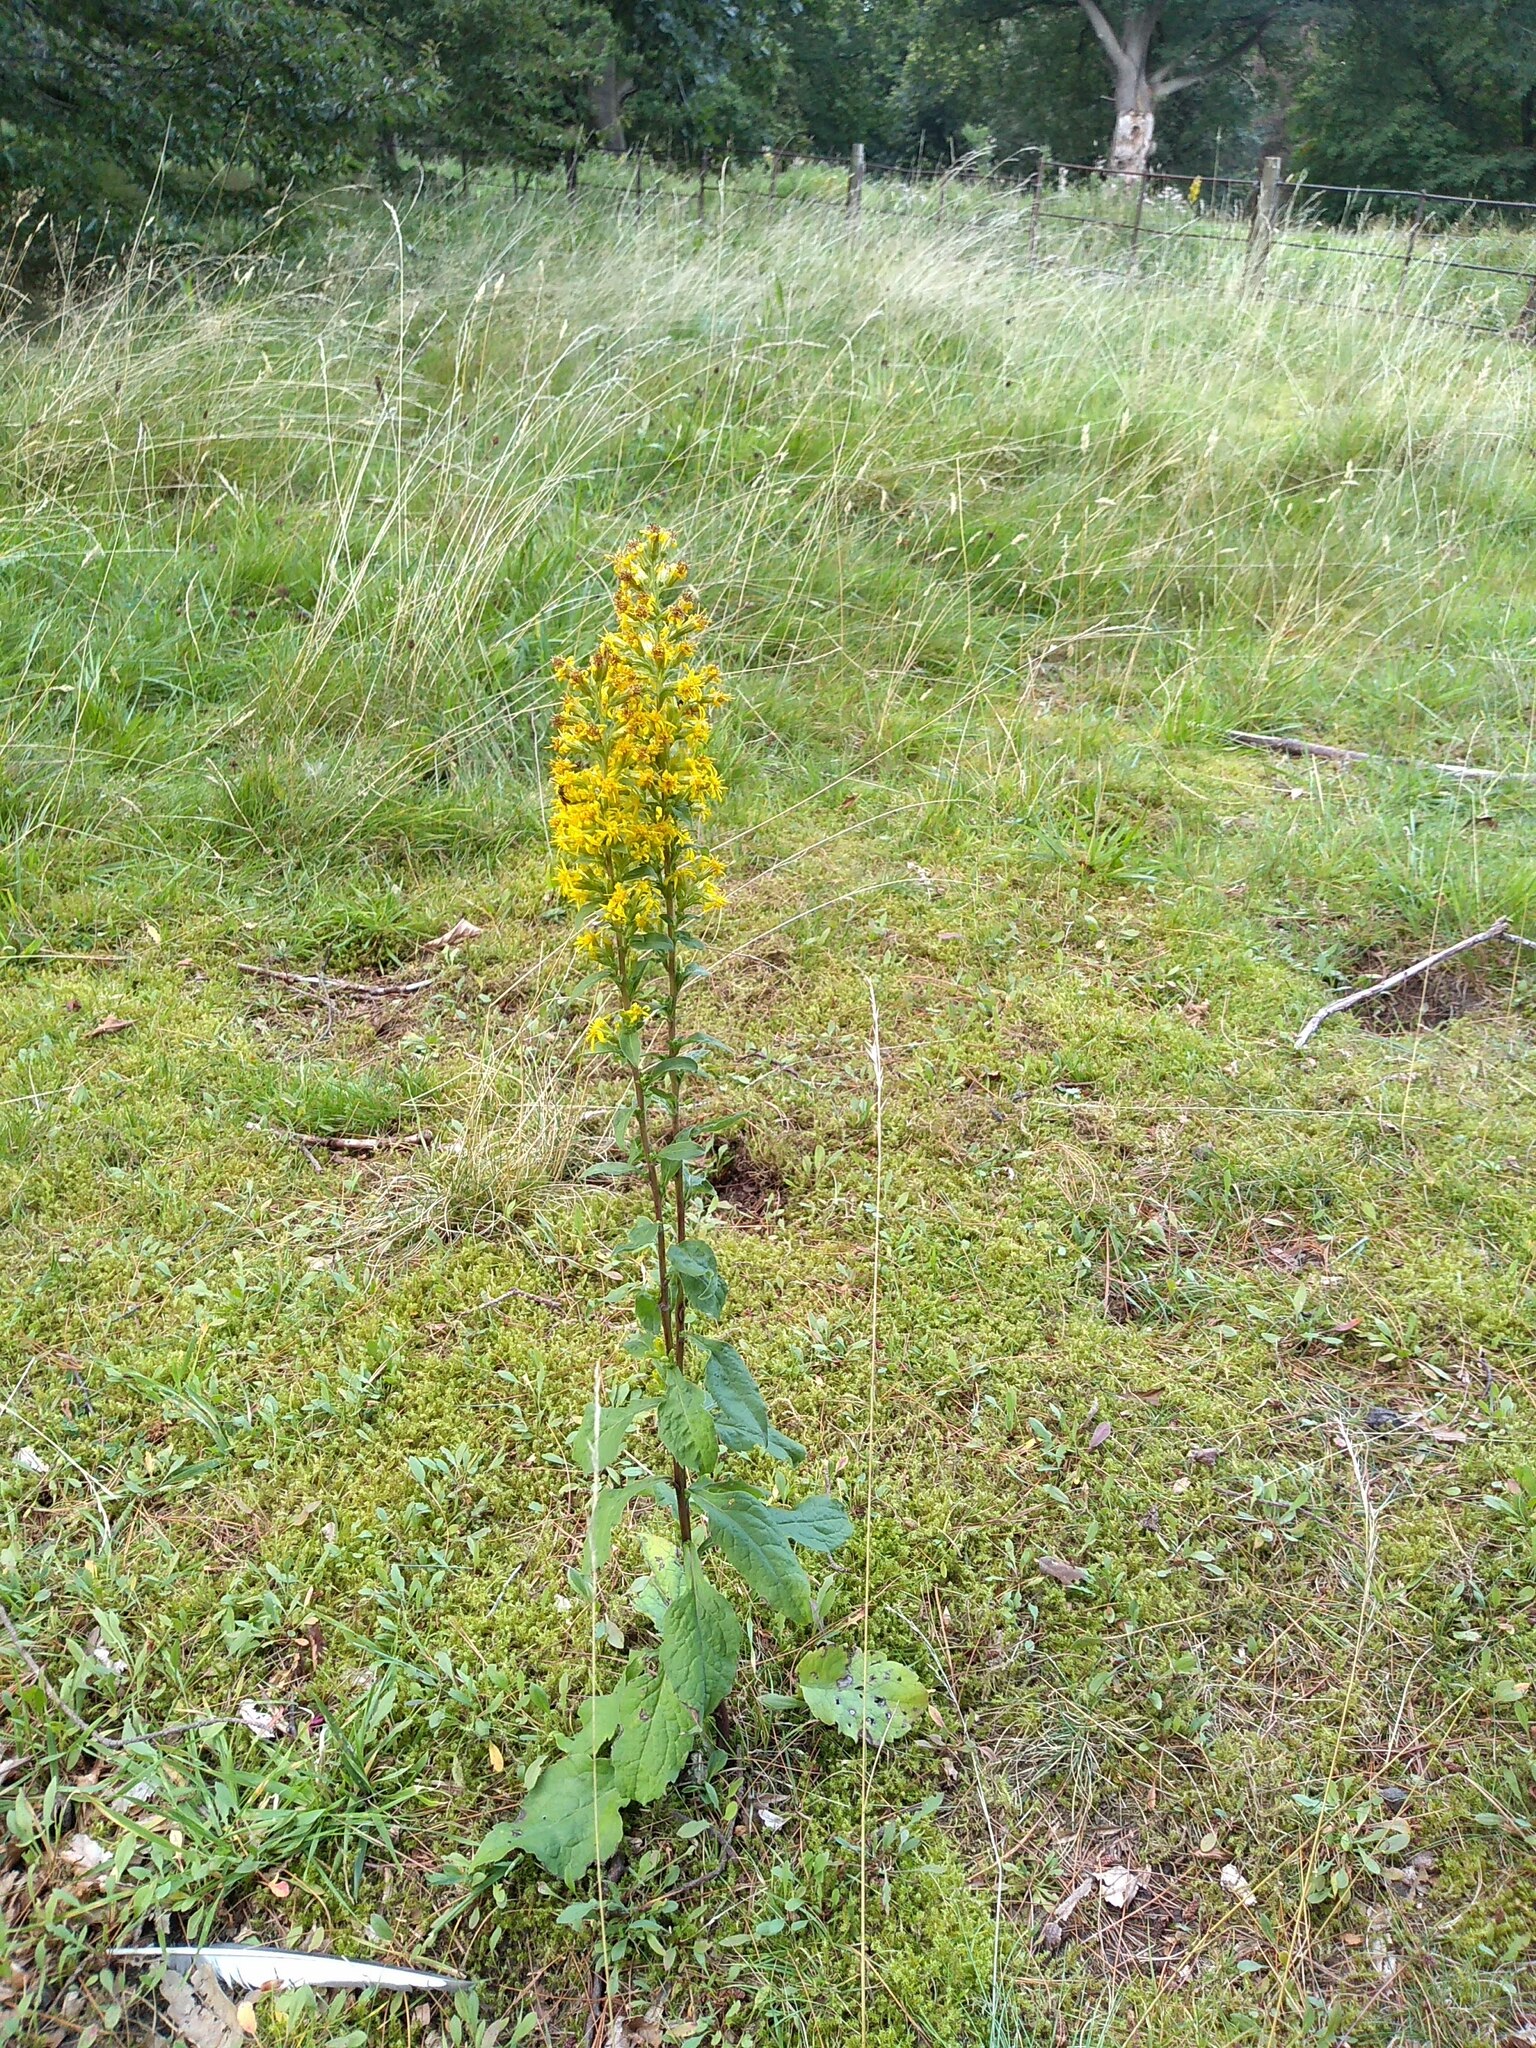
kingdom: Plantae
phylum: Tracheophyta
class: Magnoliopsida
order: Asterales
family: Asteraceae
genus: Solidago
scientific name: Solidago virgaurea
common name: Goldenrod
